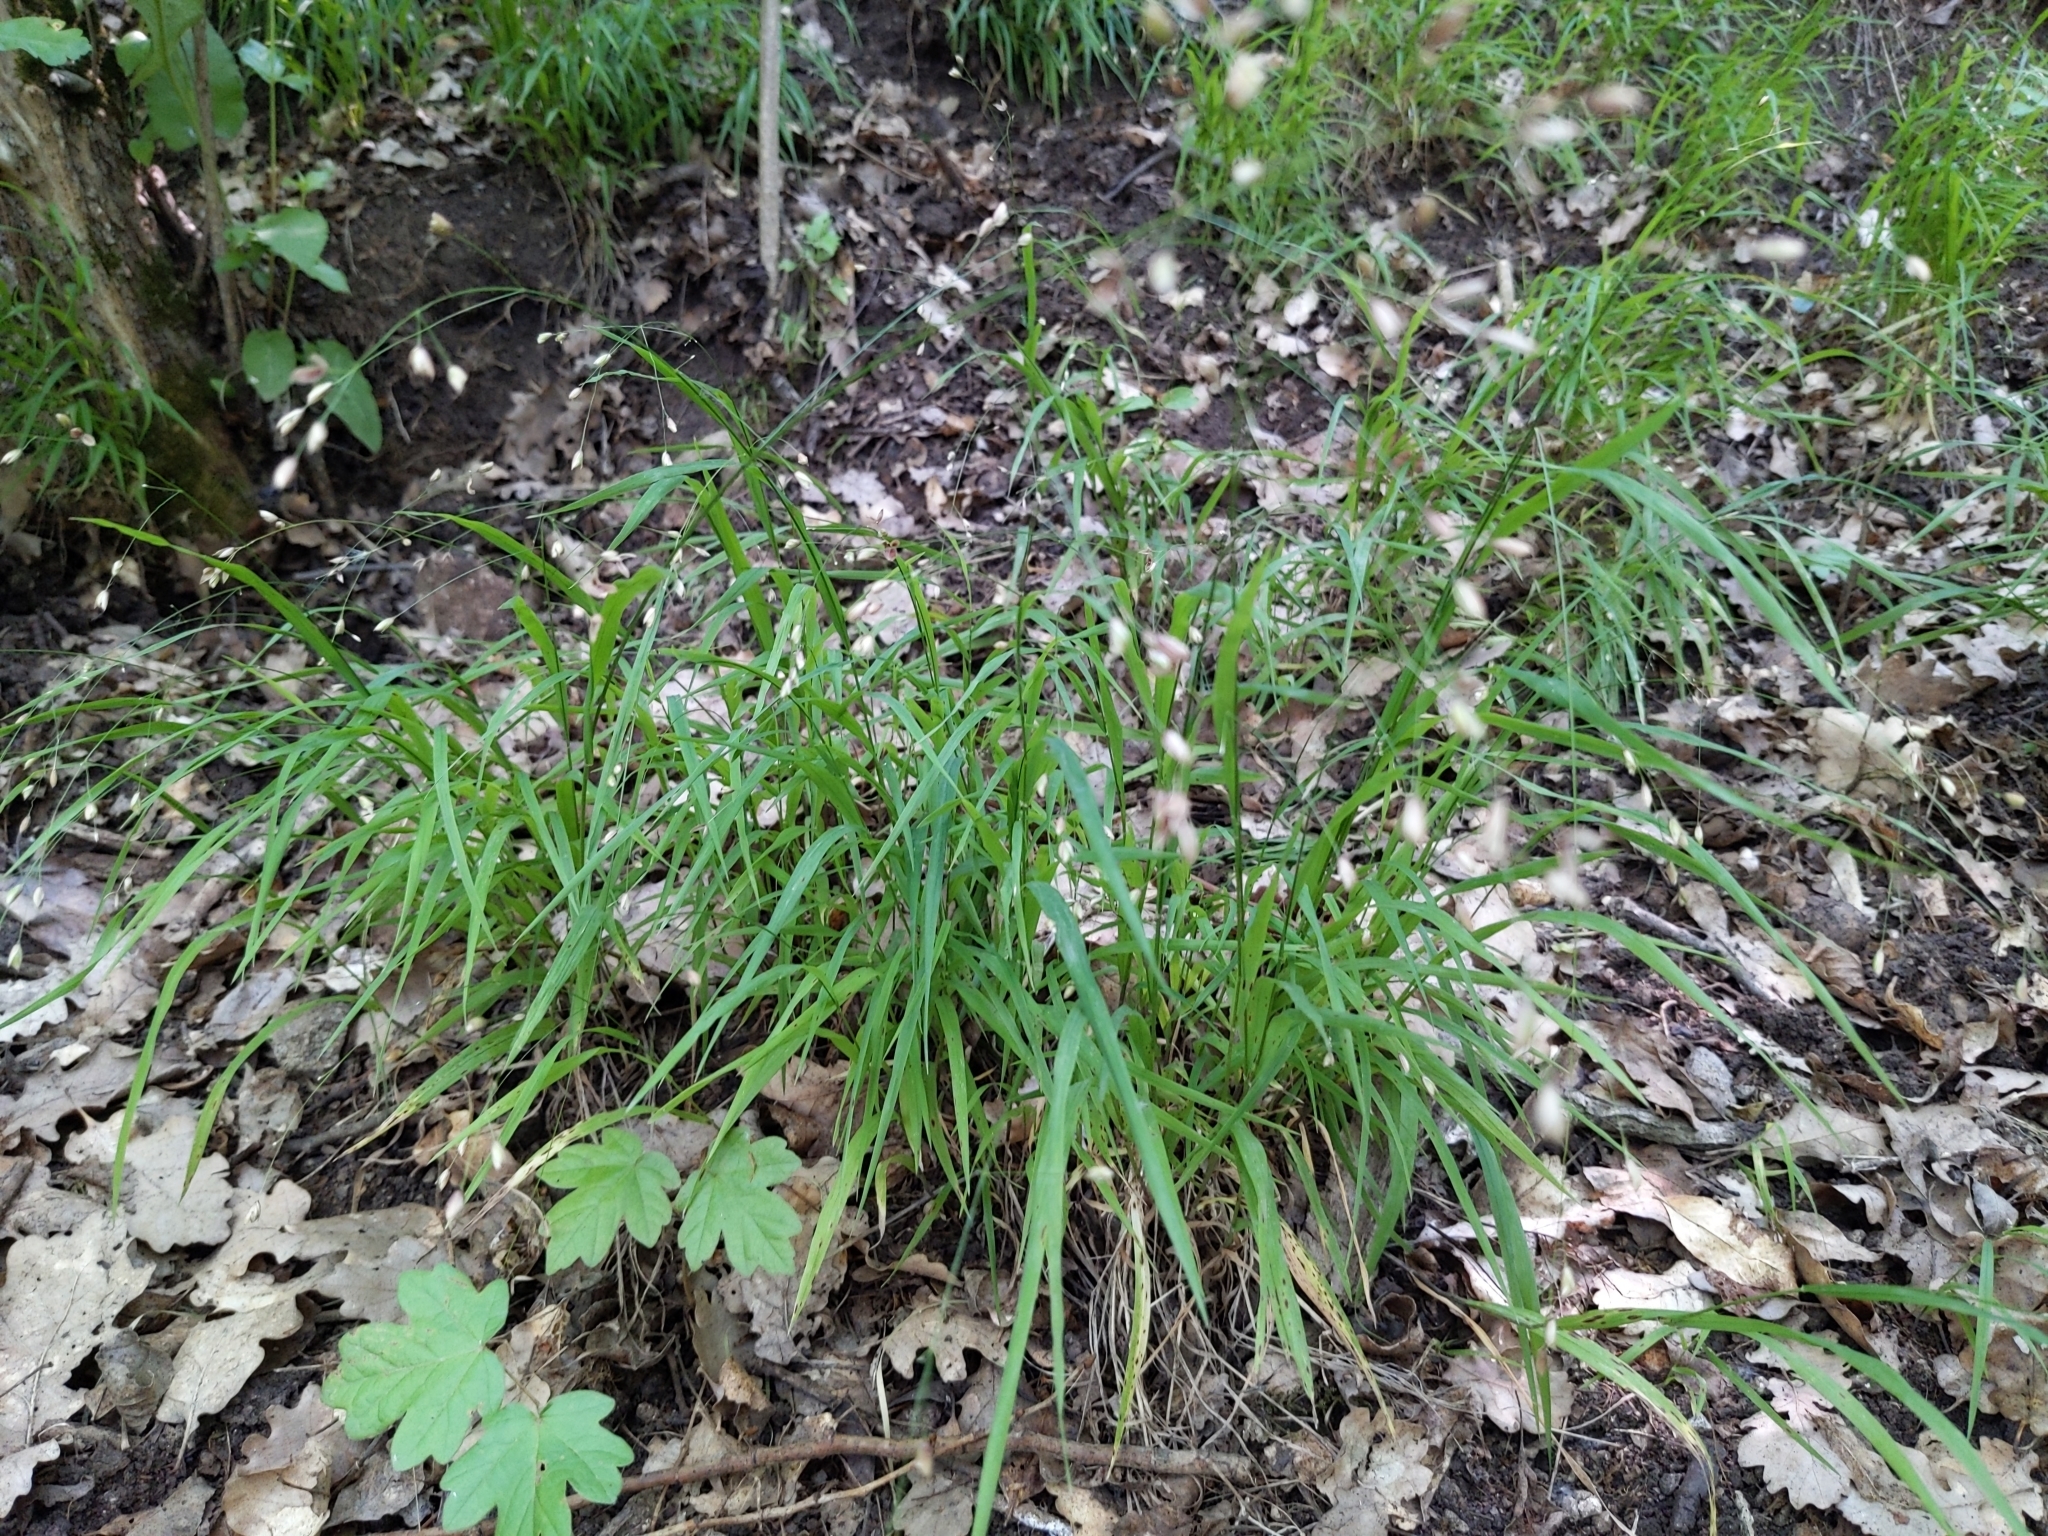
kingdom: Plantae
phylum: Tracheophyta
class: Liliopsida
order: Poales
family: Poaceae
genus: Melica
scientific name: Melica uniflora
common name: Wood melick
